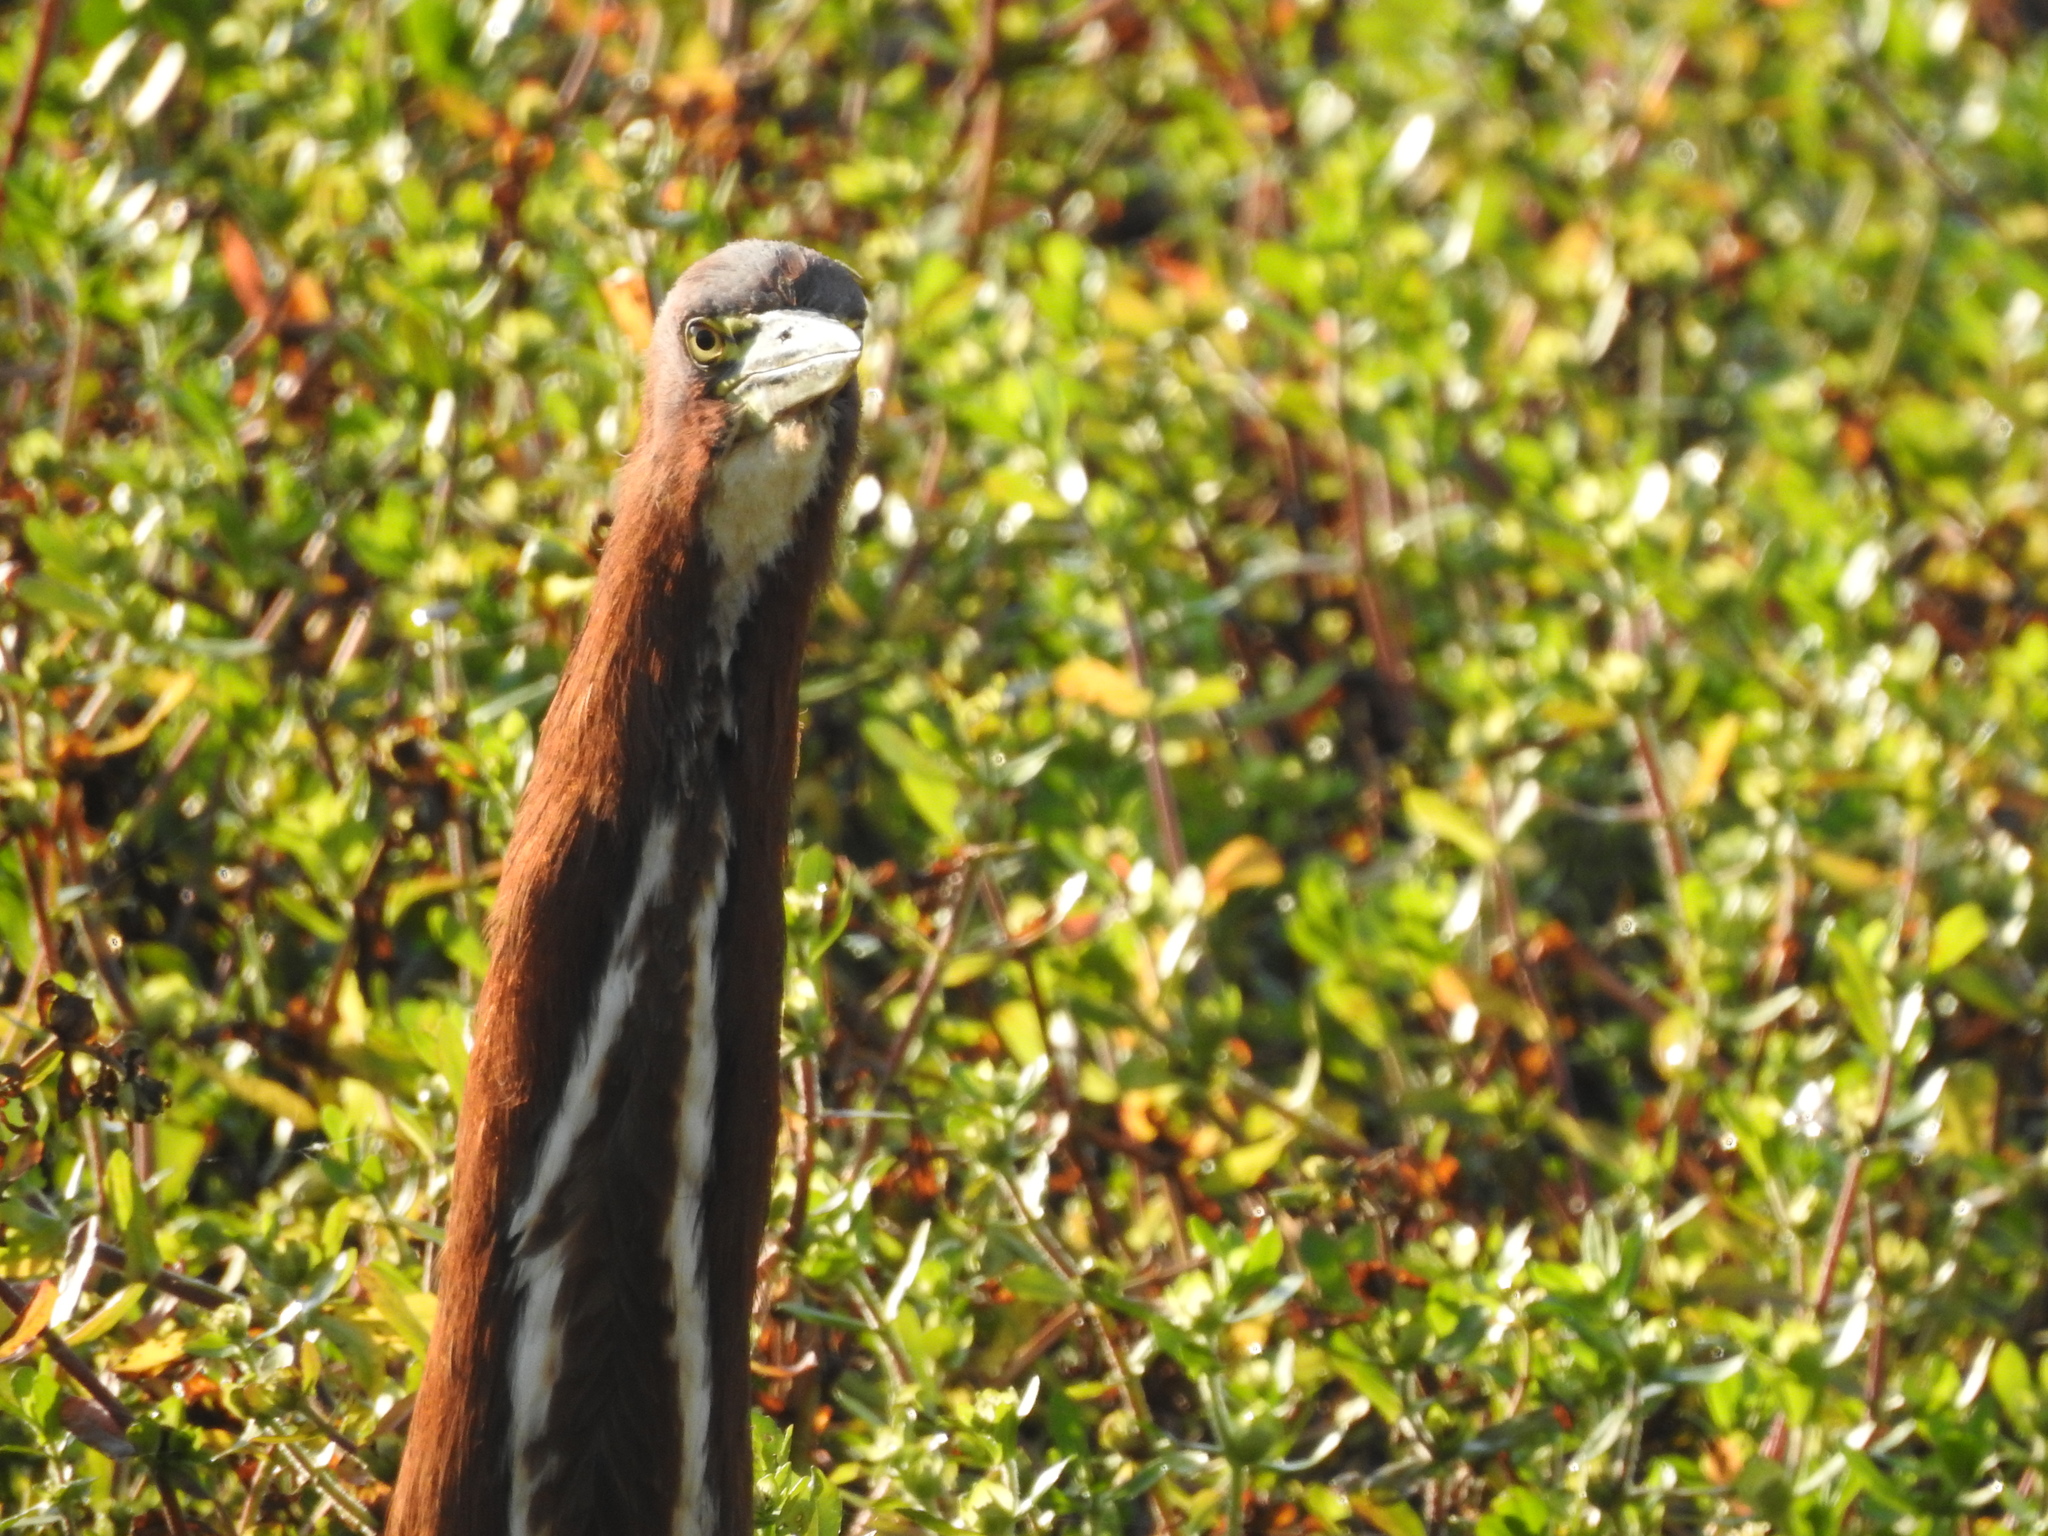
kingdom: Animalia
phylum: Chordata
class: Aves
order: Pelecaniformes
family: Ardeidae
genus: Tigrisoma
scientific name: Tigrisoma lineatum
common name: Rufescent tiger-heron
